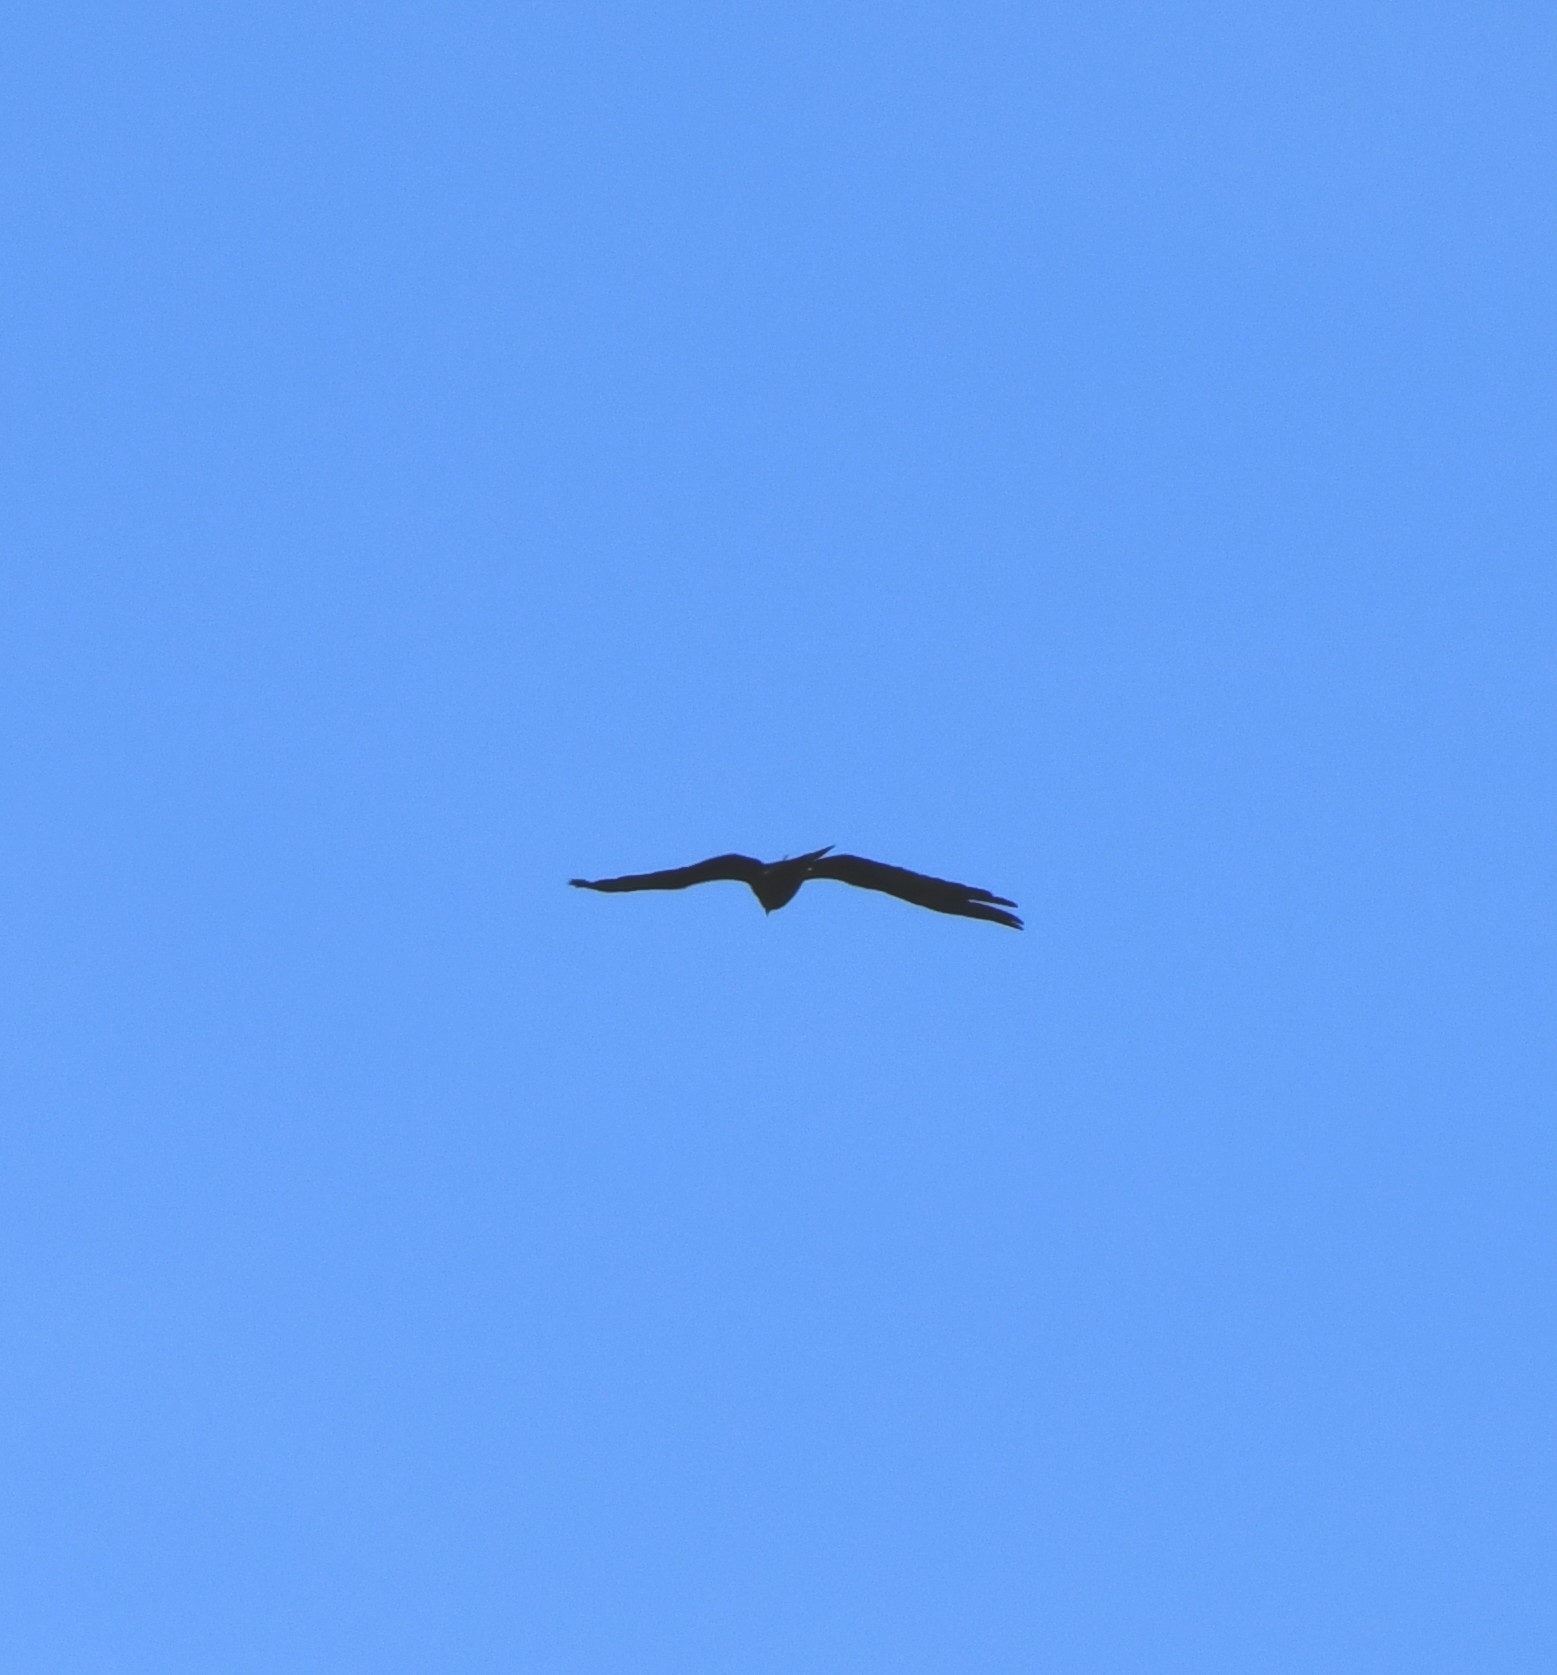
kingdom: Animalia
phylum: Chordata
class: Aves
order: Accipitriformes
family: Accipitridae
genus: Milvus
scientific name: Milvus migrans
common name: Black kite
